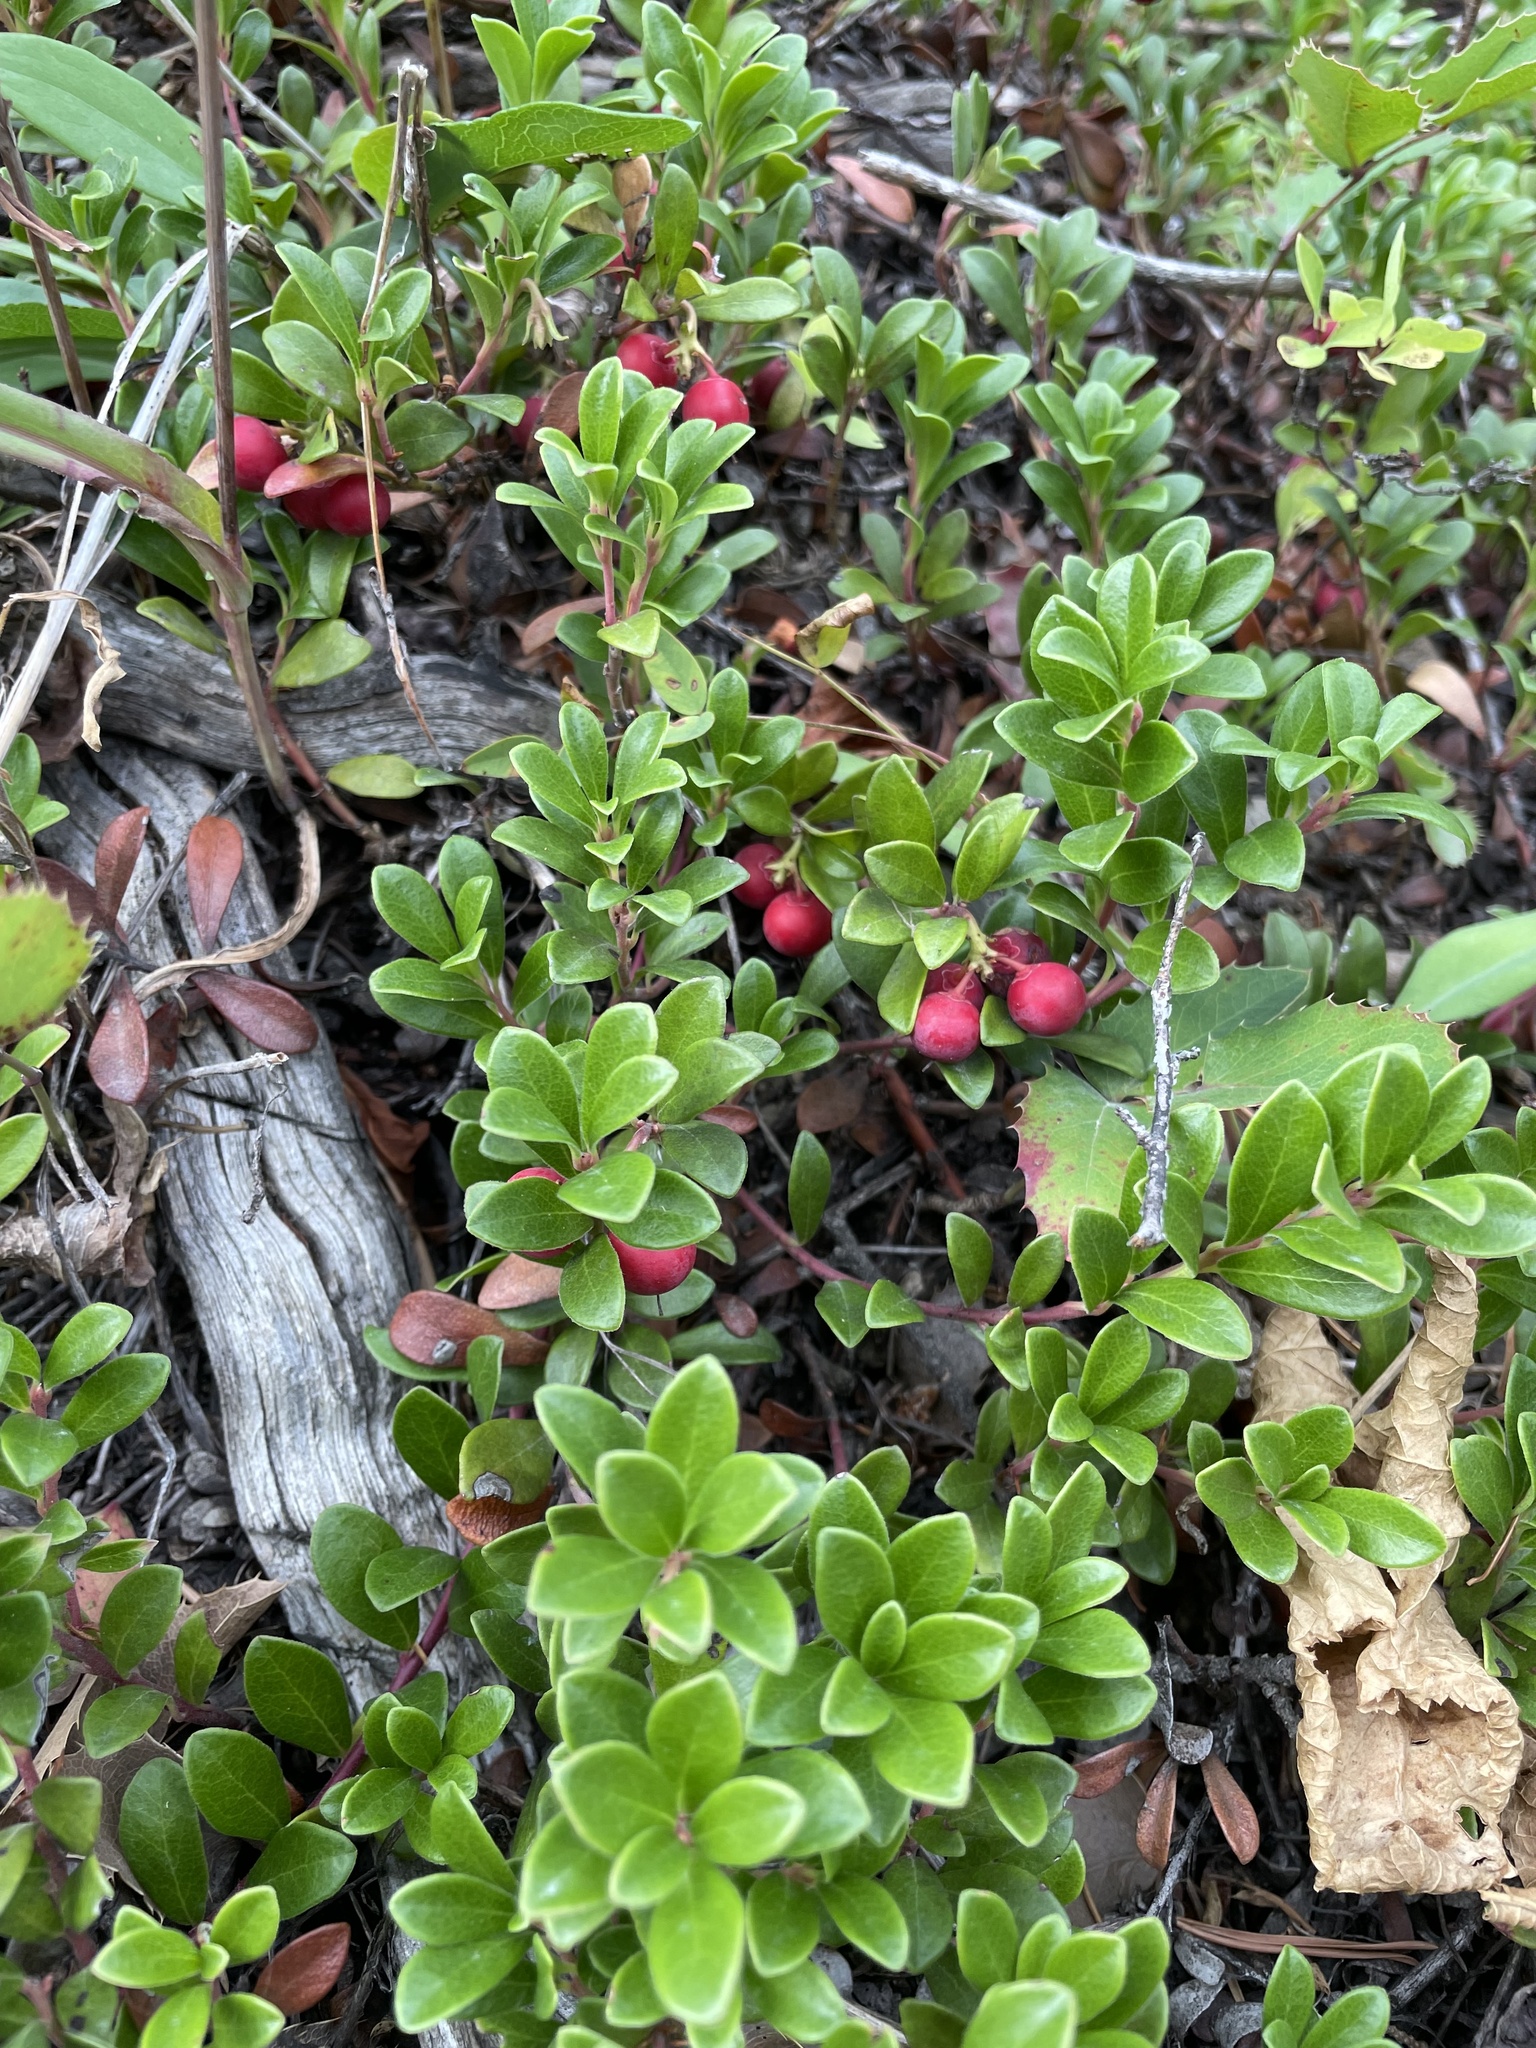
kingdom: Plantae
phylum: Tracheophyta
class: Magnoliopsida
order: Ericales
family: Ericaceae
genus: Arctostaphylos
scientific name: Arctostaphylos uva-ursi
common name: Bearberry
